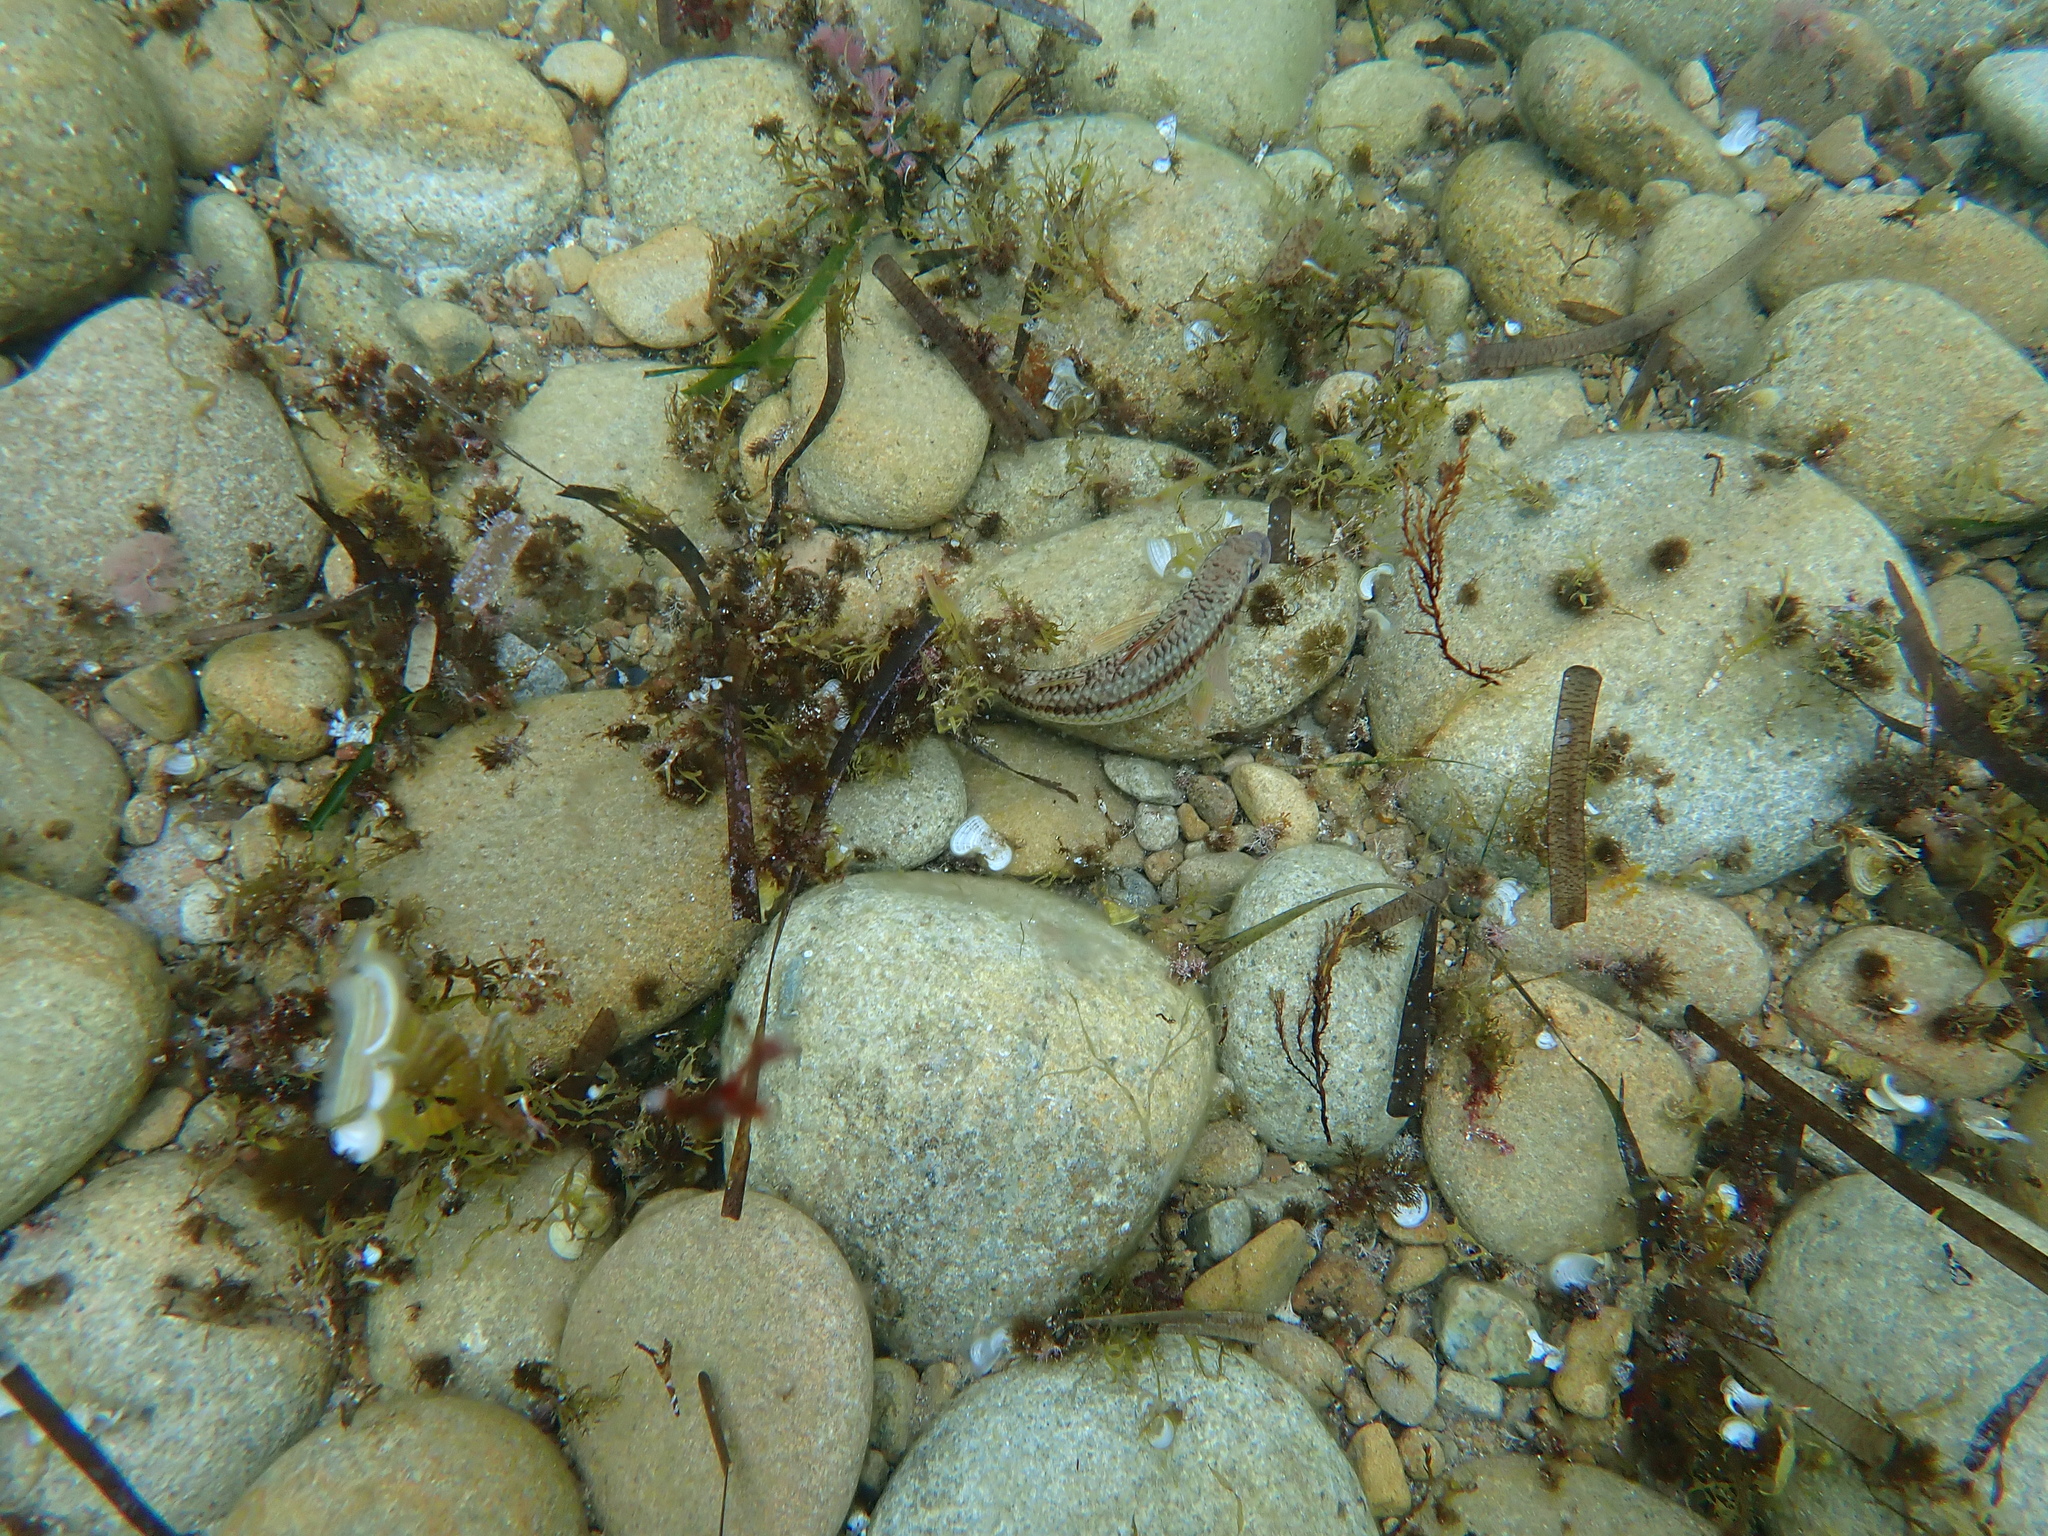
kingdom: Animalia
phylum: Chordata
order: Perciformes
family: Mullidae
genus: Mullus
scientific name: Mullus surmuletus
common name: Red mullet
